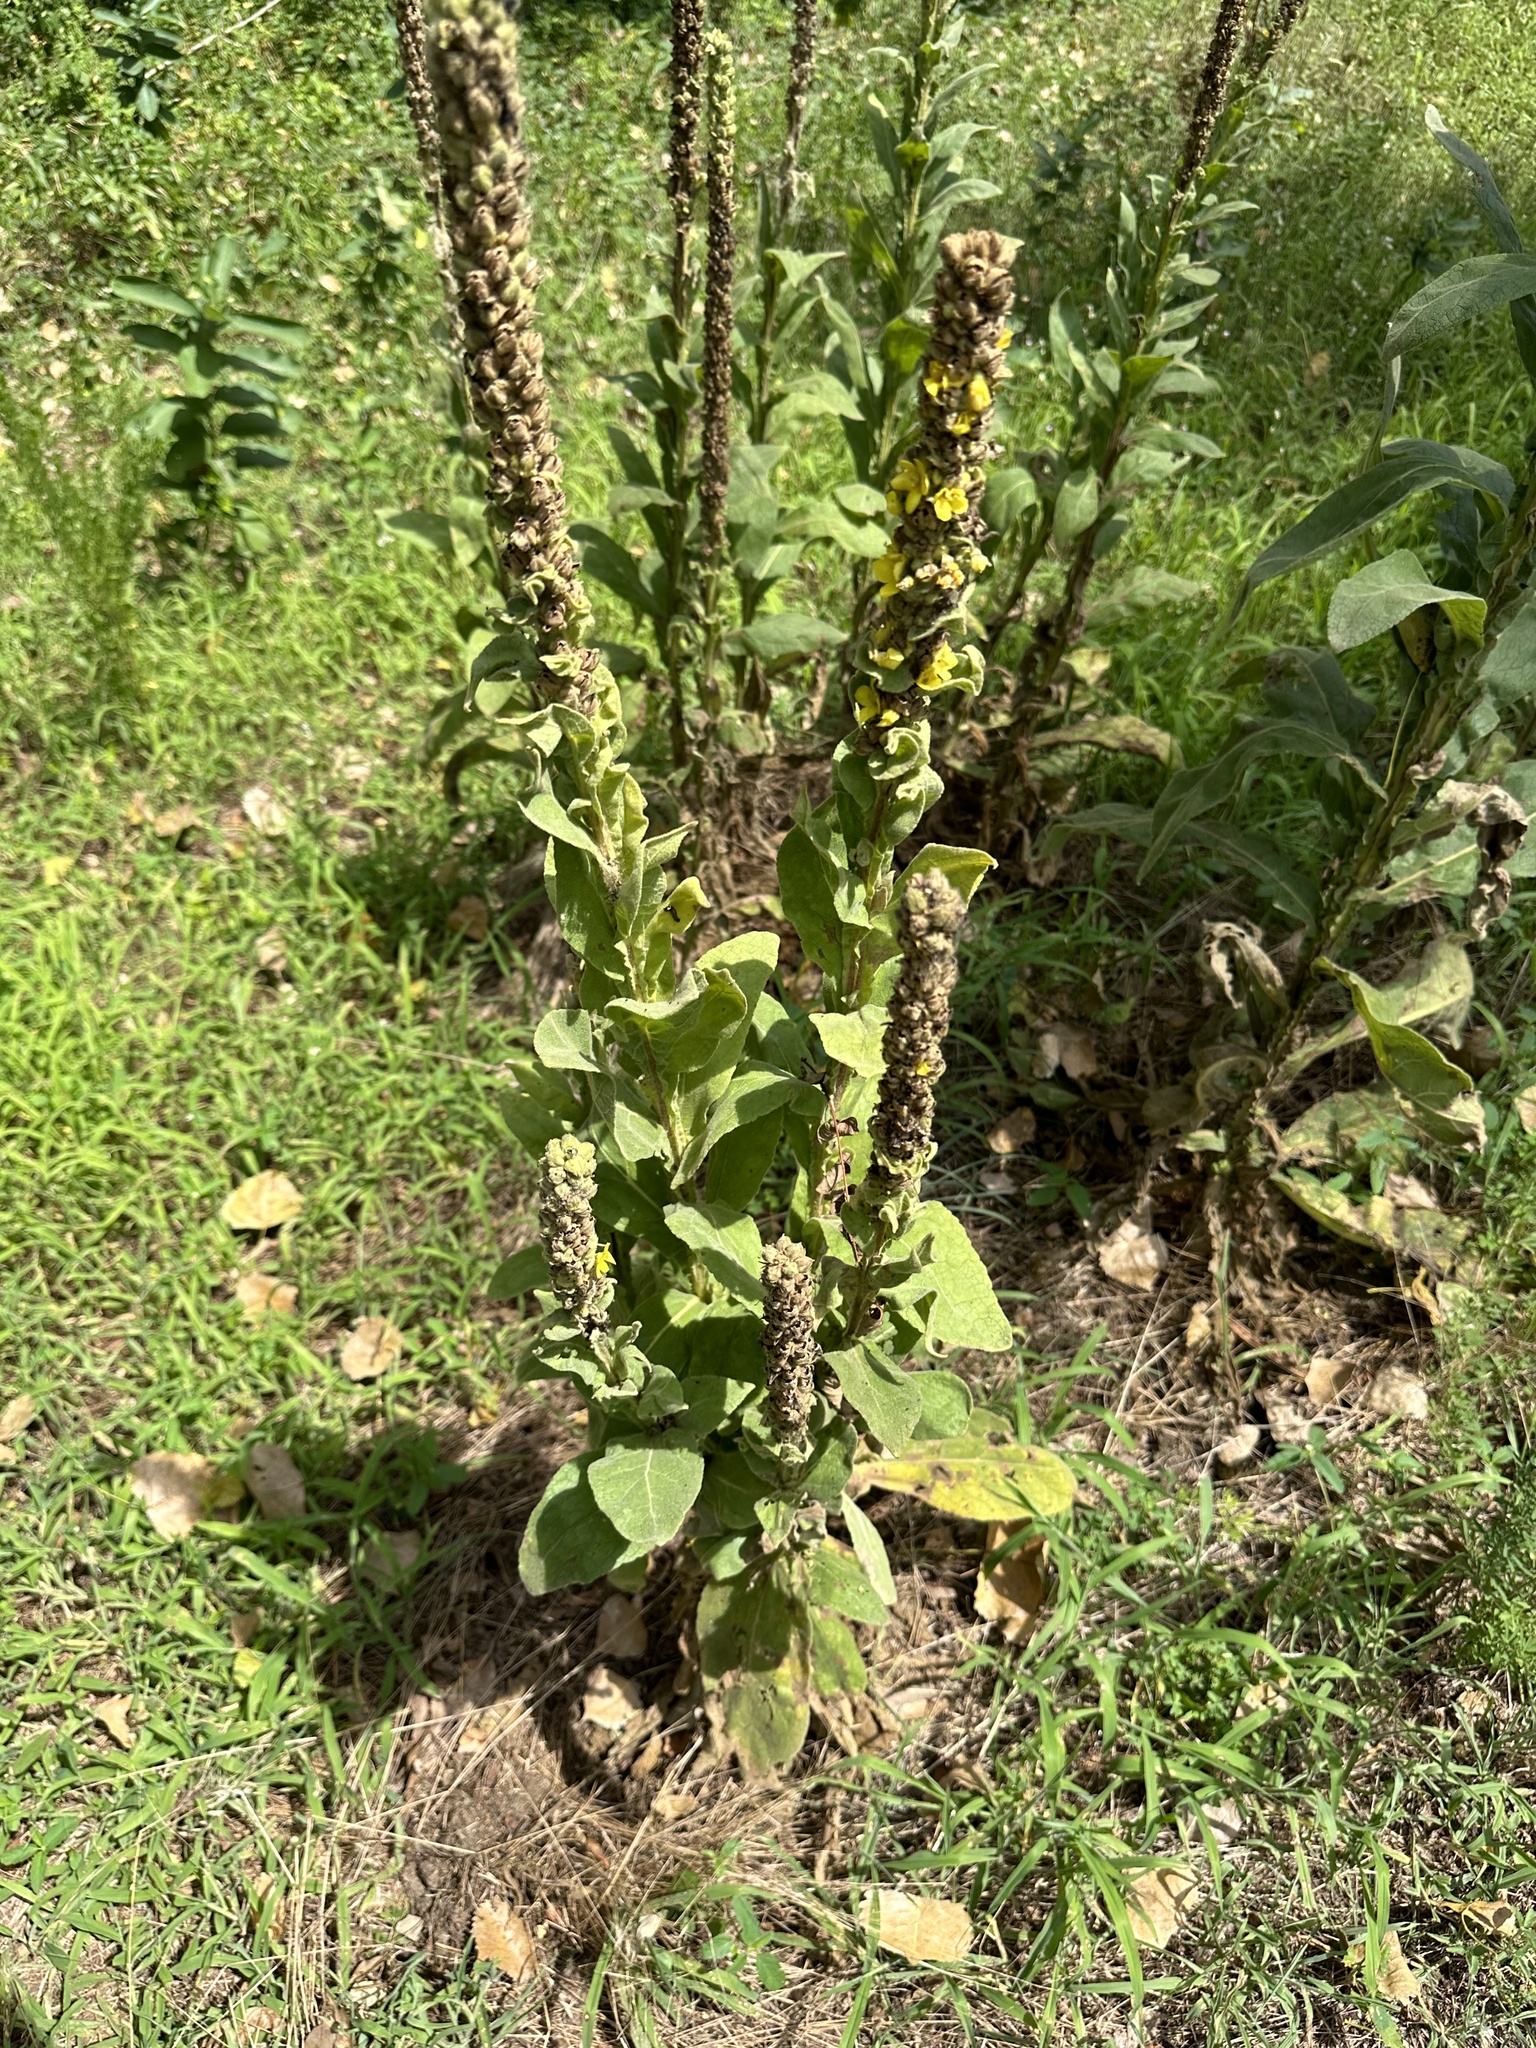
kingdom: Plantae
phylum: Tracheophyta
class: Magnoliopsida
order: Lamiales
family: Scrophulariaceae
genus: Verbascum
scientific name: Verbascum thapsus
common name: Common mullein
